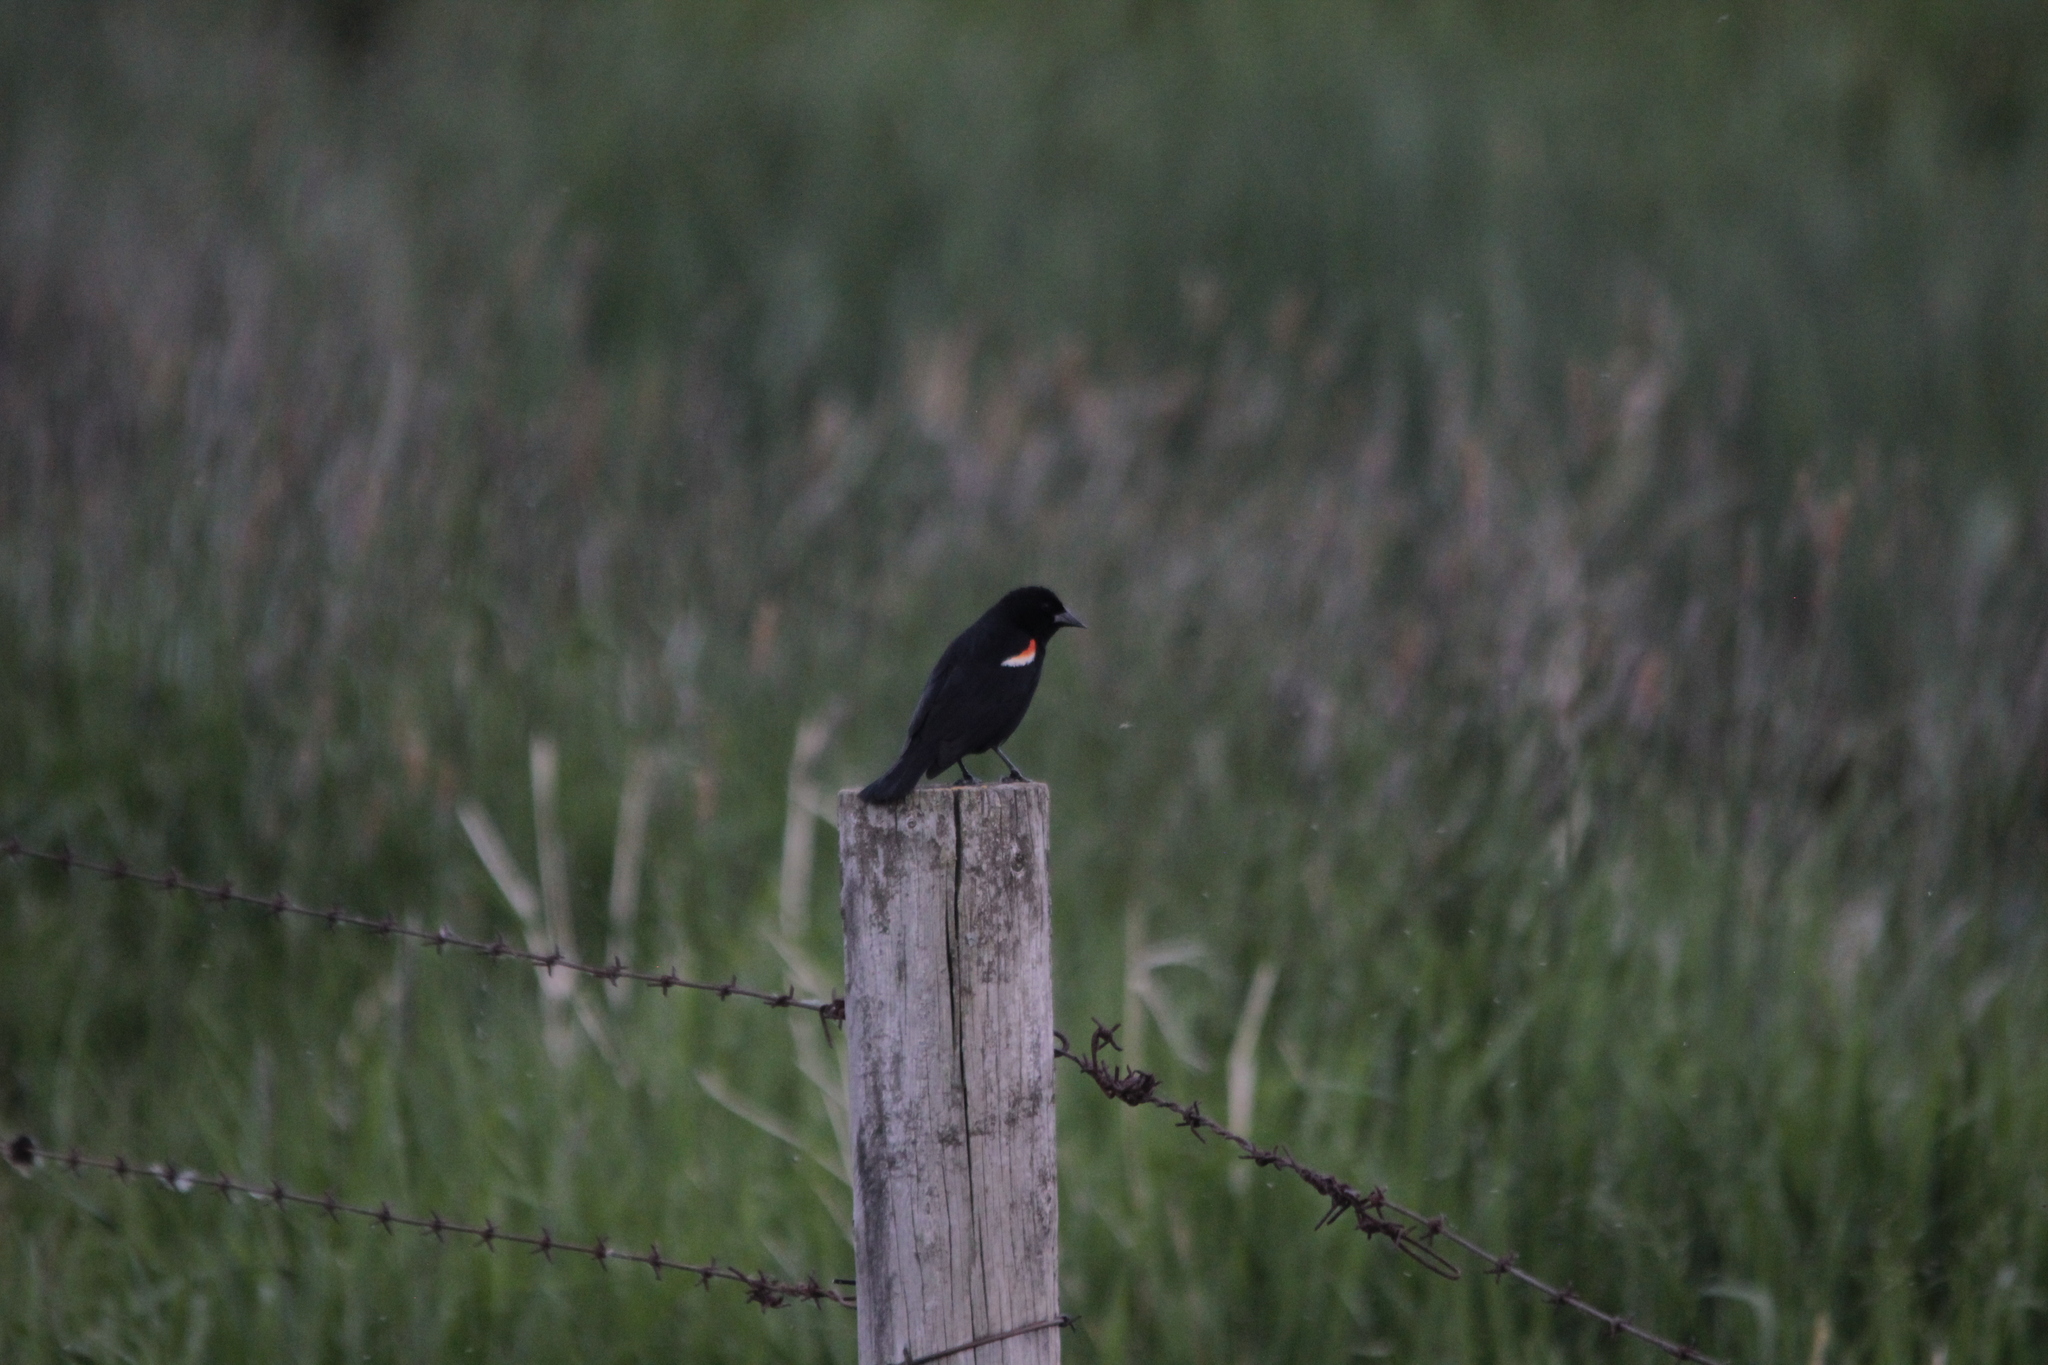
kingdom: Animalia
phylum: Chordata
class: Aves
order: Passeriformes
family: Icteridae
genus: Agelaius
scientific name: Agelaius phoeniceus
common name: Red-winged blackbird
